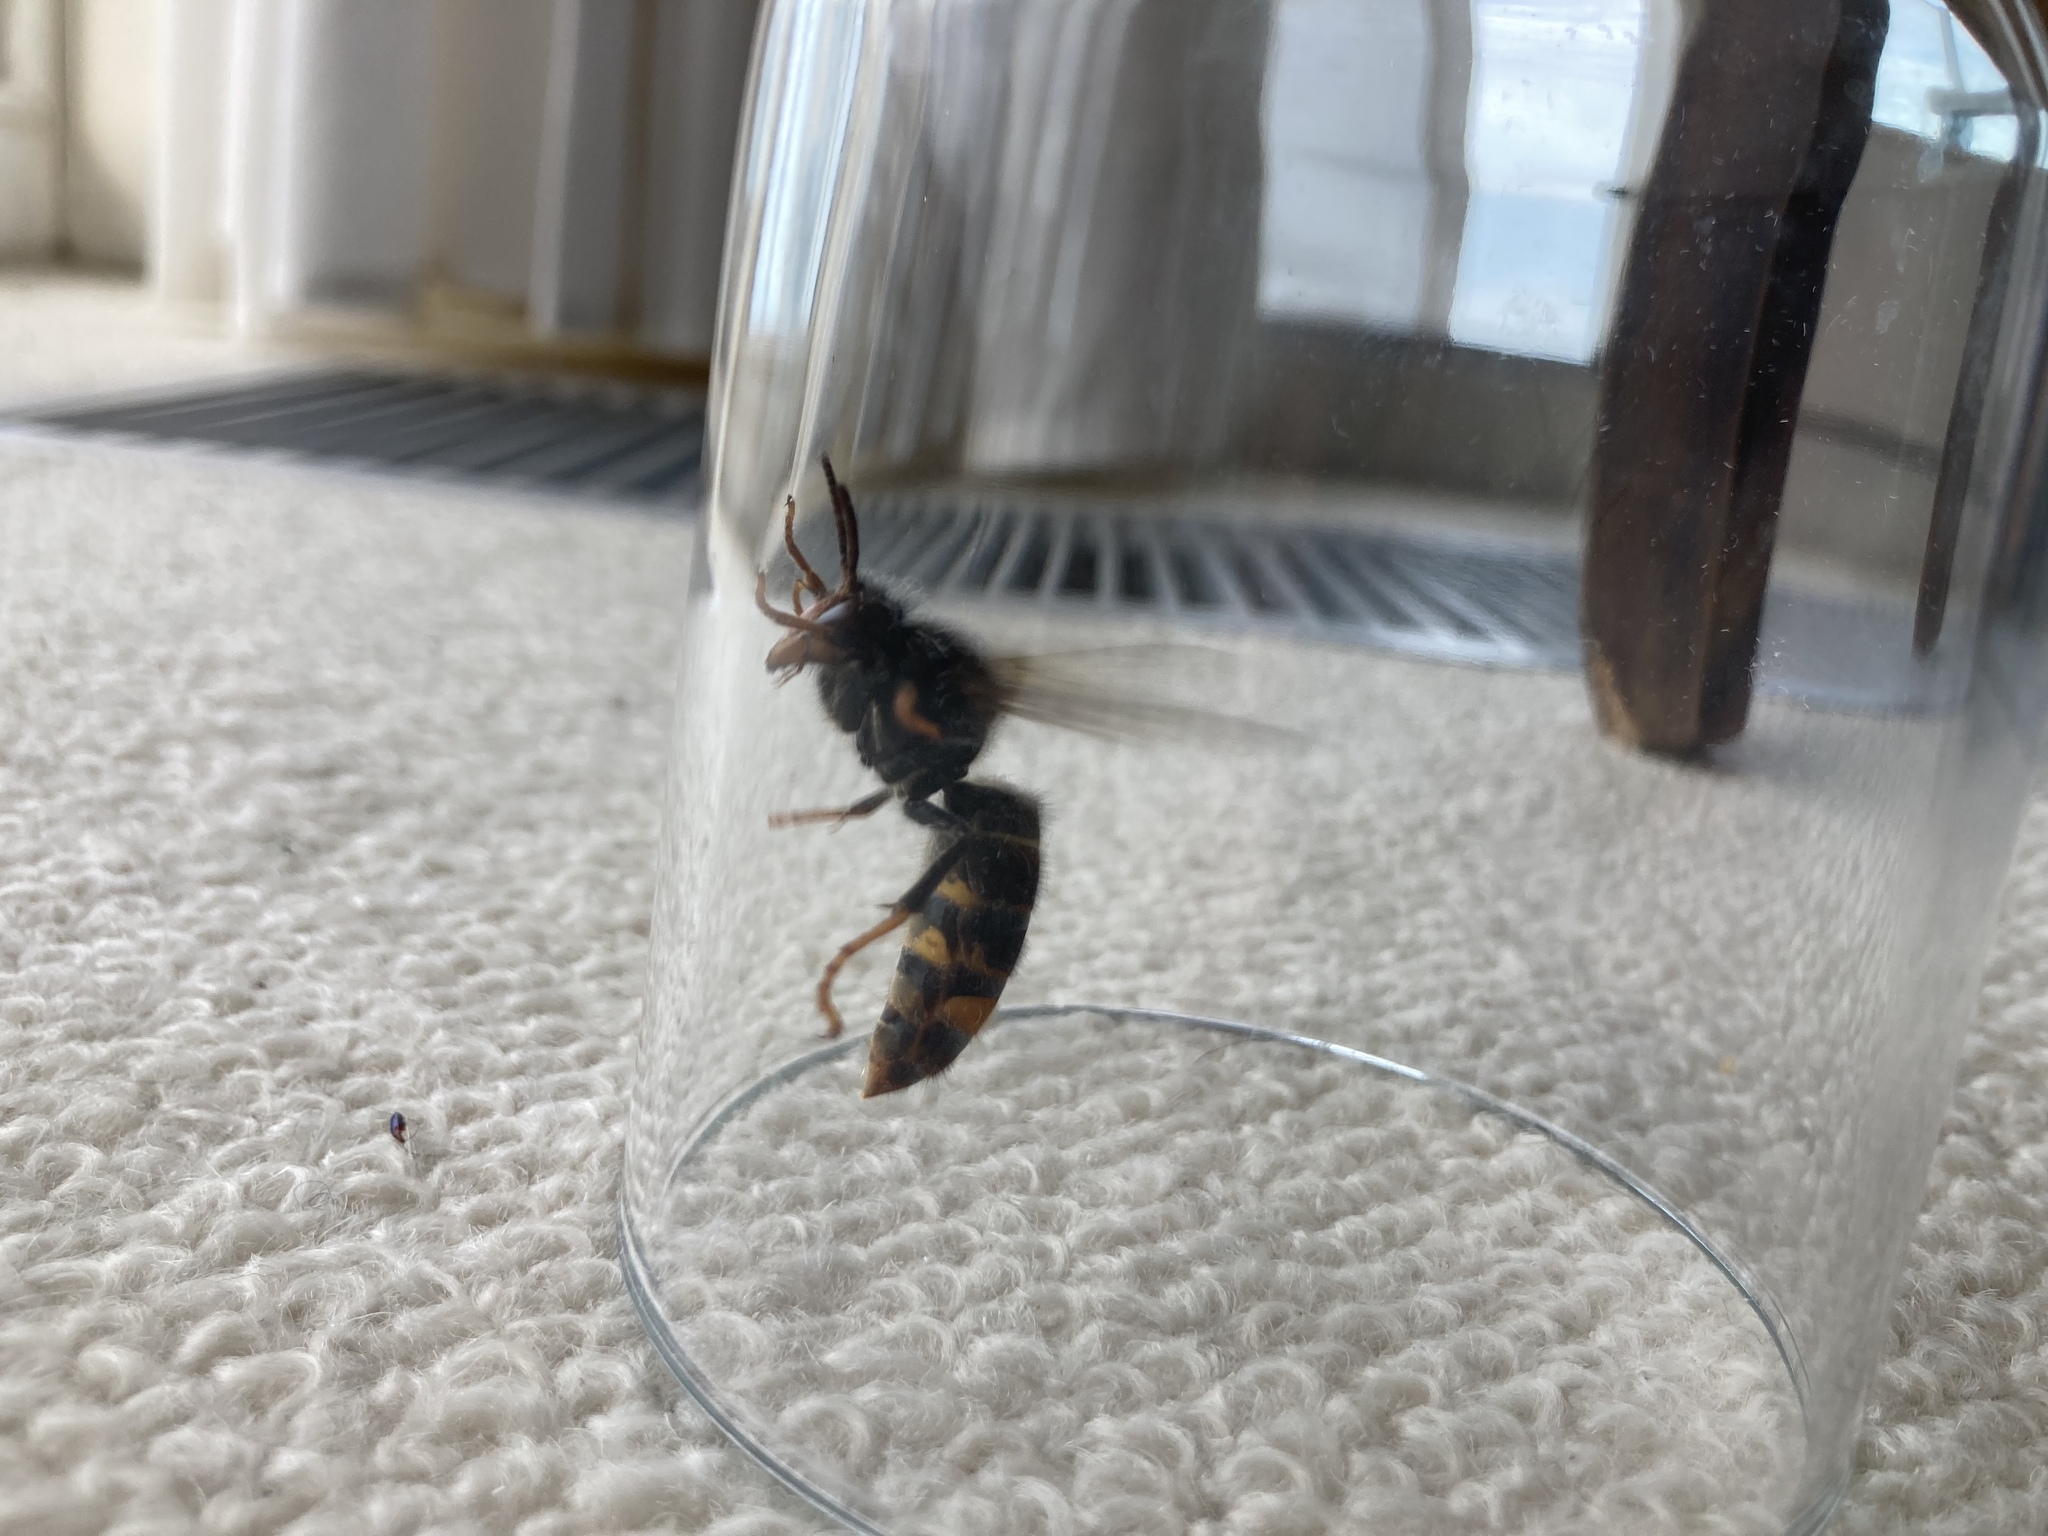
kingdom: Animalia
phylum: Arthropoda
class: Insecta
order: Hymenoptera
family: Vespidae
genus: Vespa
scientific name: Vespa velutina
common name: Asian hornet
